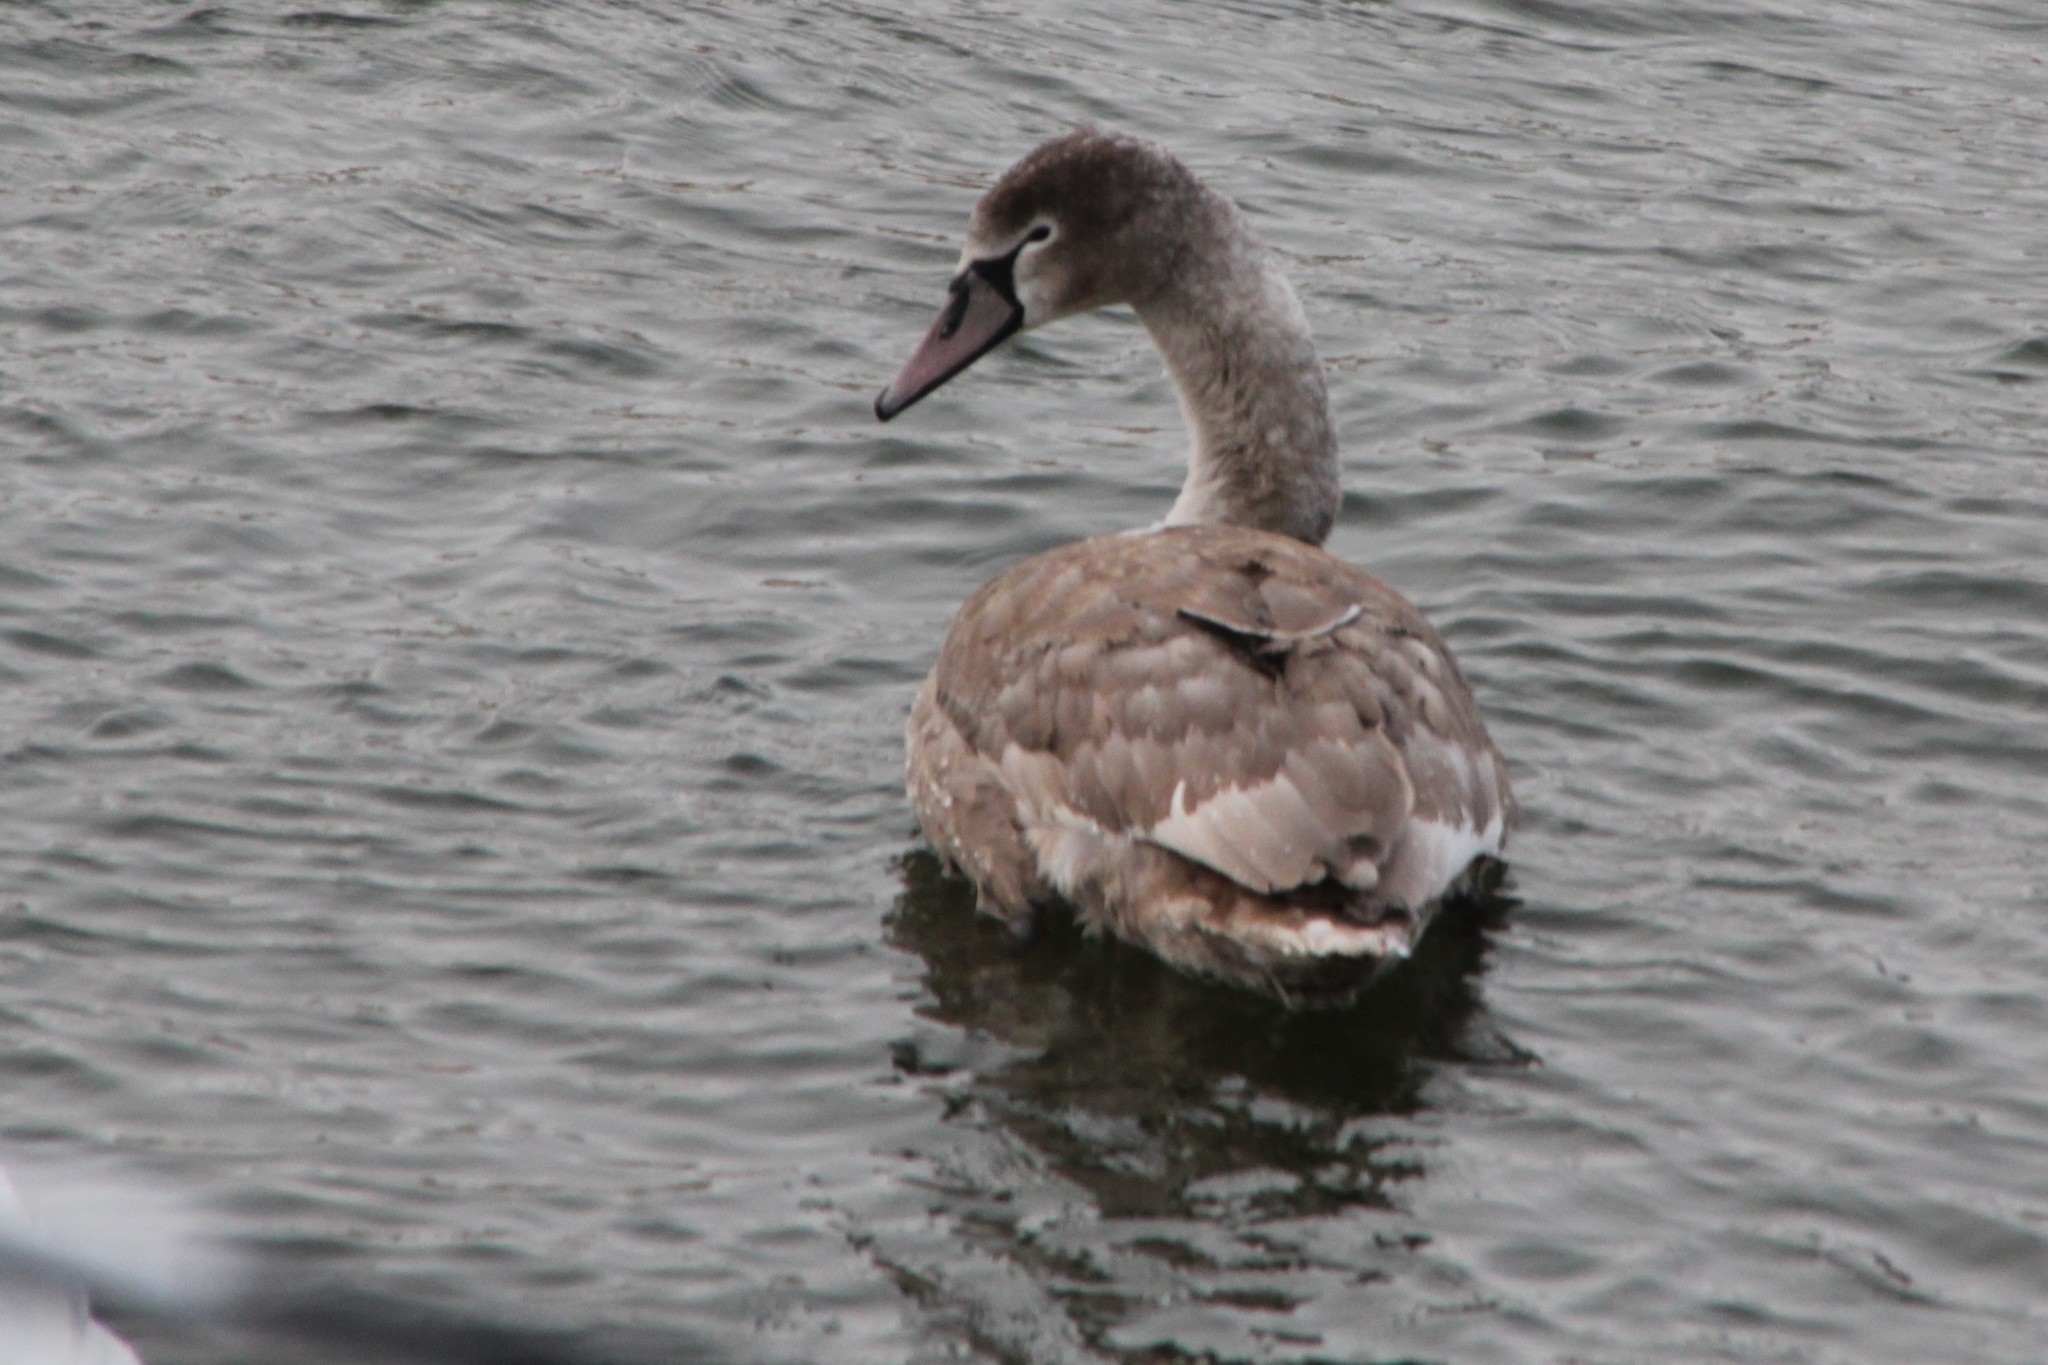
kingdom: Animalia
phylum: Chordata
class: Aves
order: Anseriformes
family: Anatidae
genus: Cygnus
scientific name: Cygnus olor
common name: Mute swan
